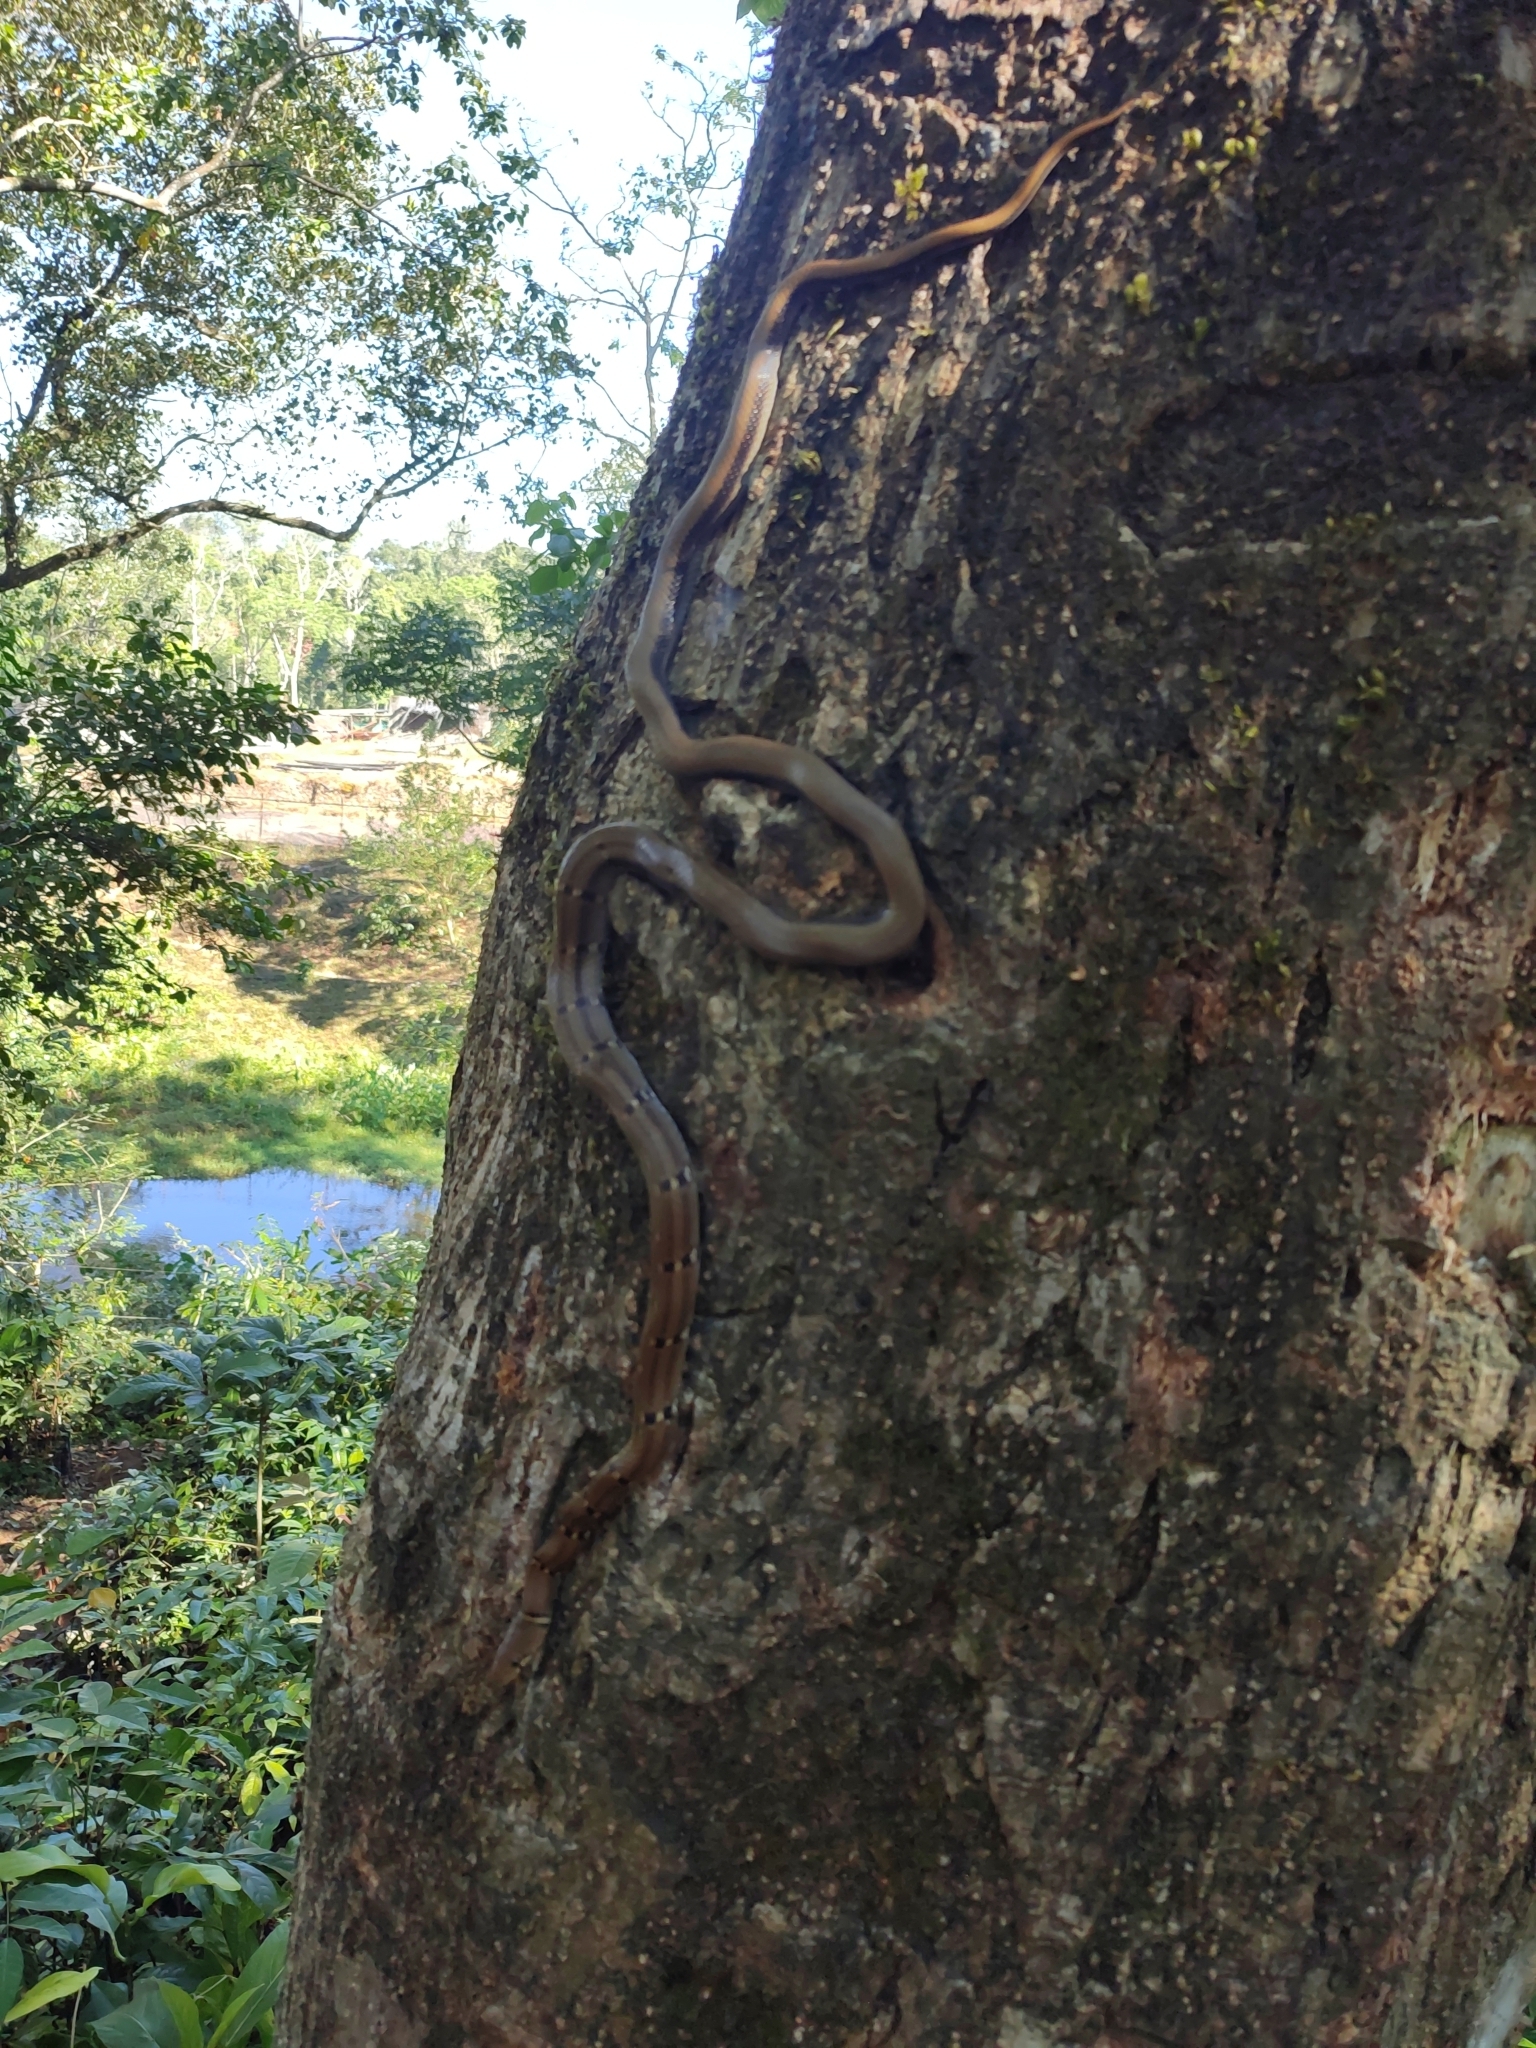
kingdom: Animalia
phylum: Chordata
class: Squamata
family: Colubridae
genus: Coelognathus
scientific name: Coelognathus helena
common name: Trinket snake
